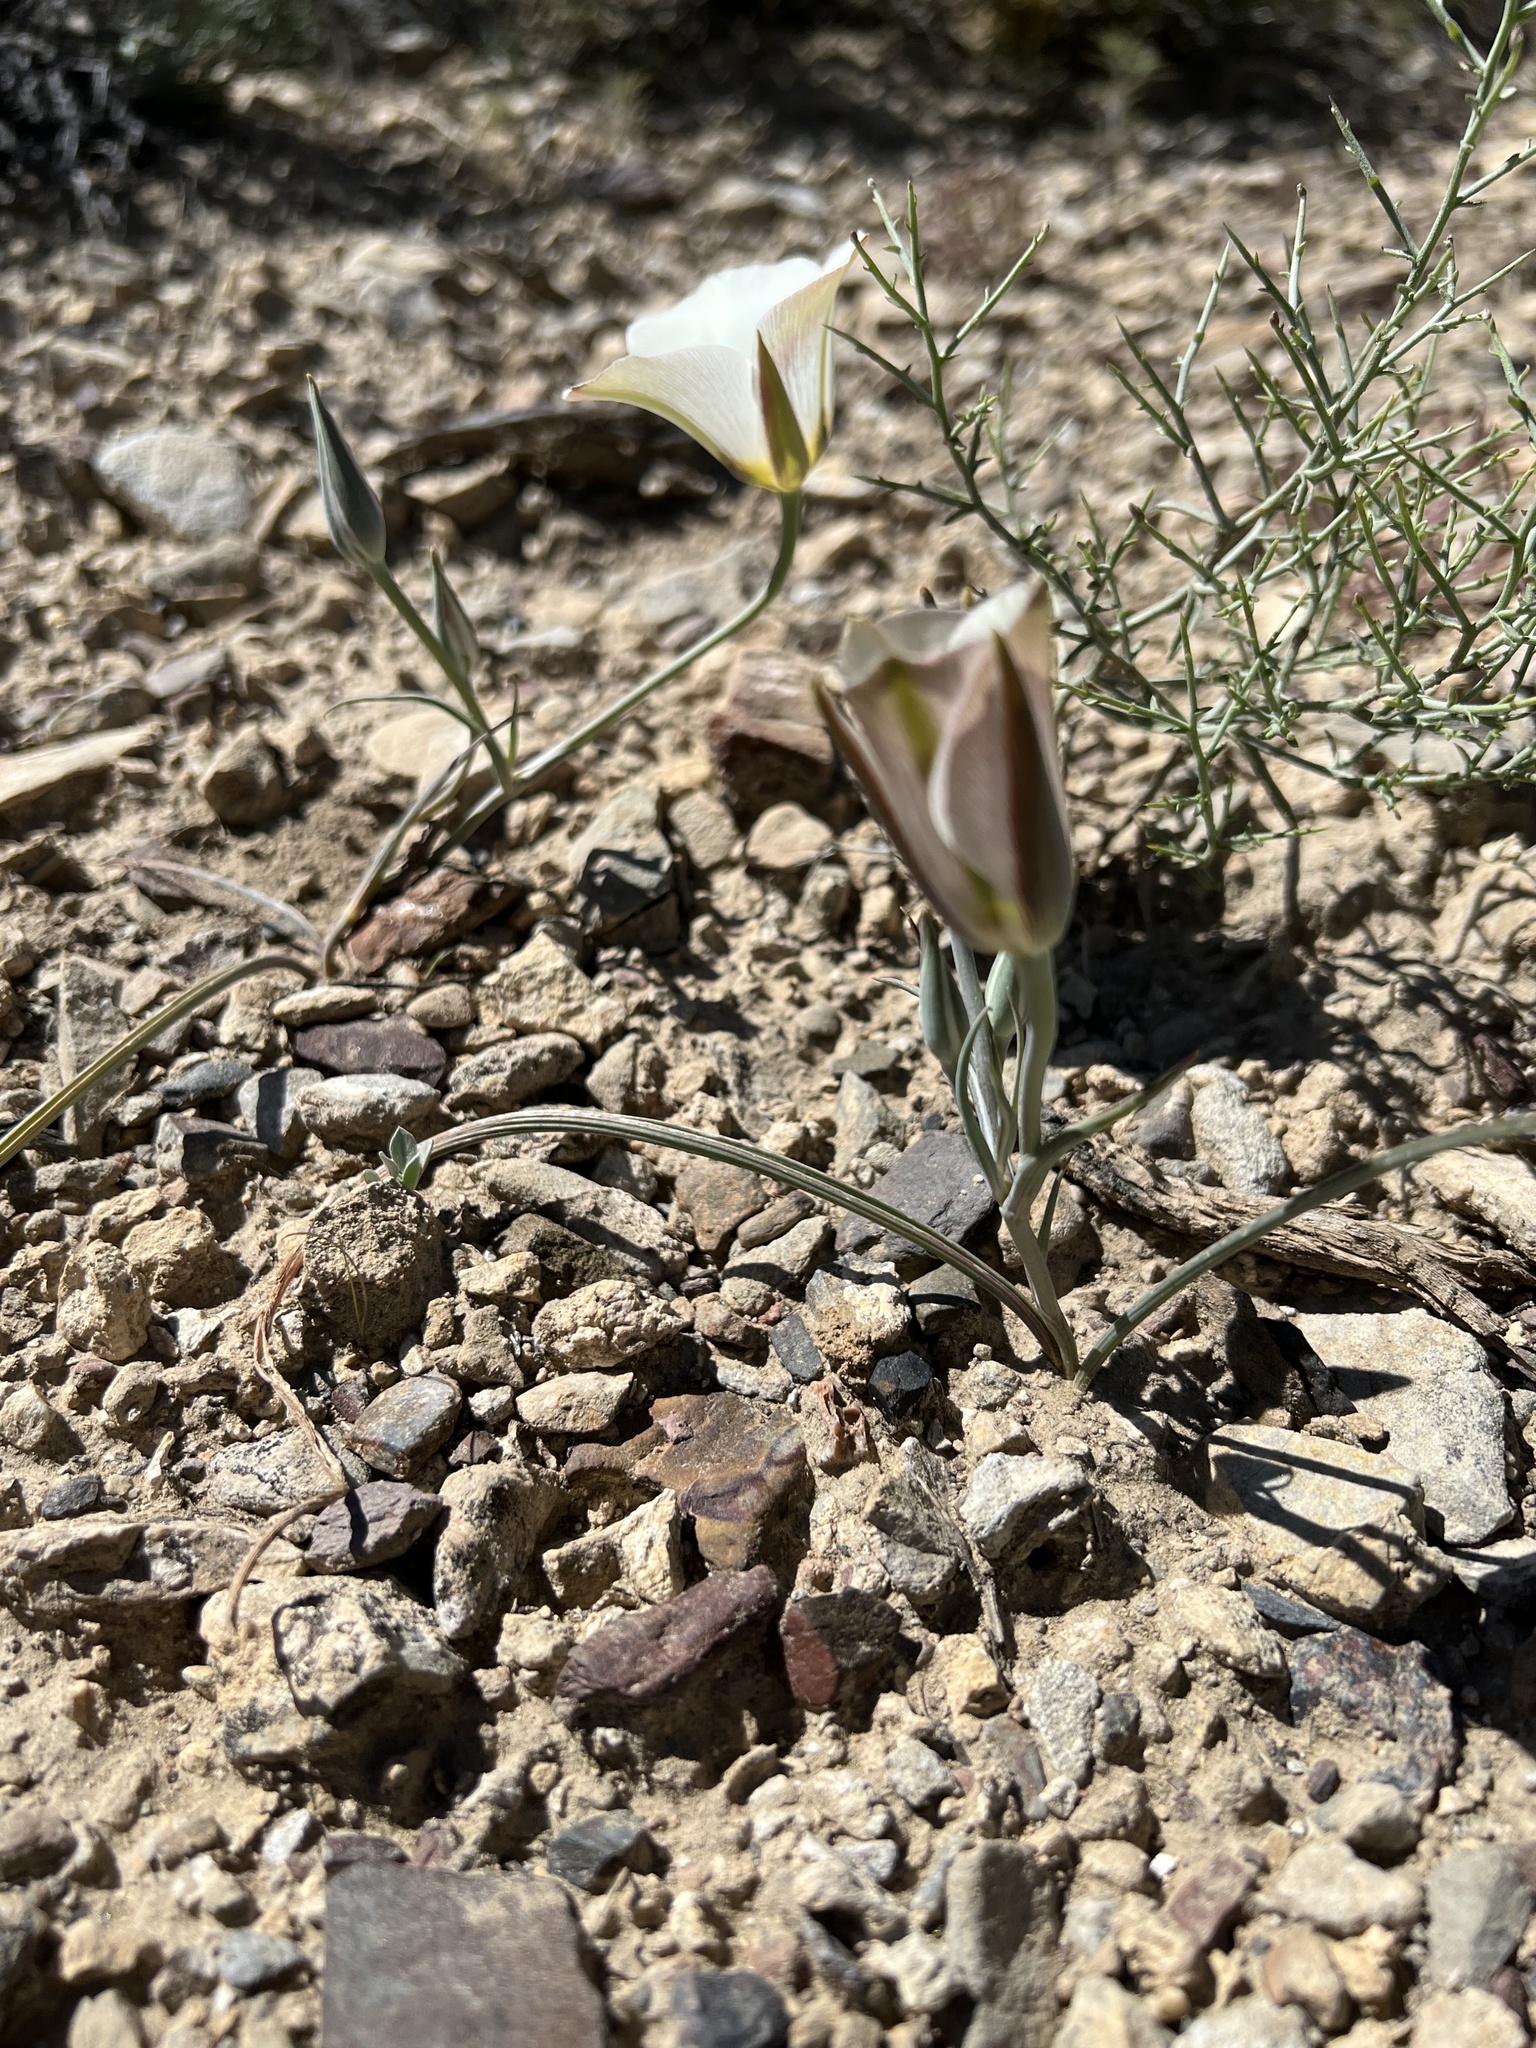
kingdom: Plantae
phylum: Tracheophyta
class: Liliopsida
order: Liliales
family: Liliaceae
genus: Calochortus
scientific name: Calochortus bruneaunis
